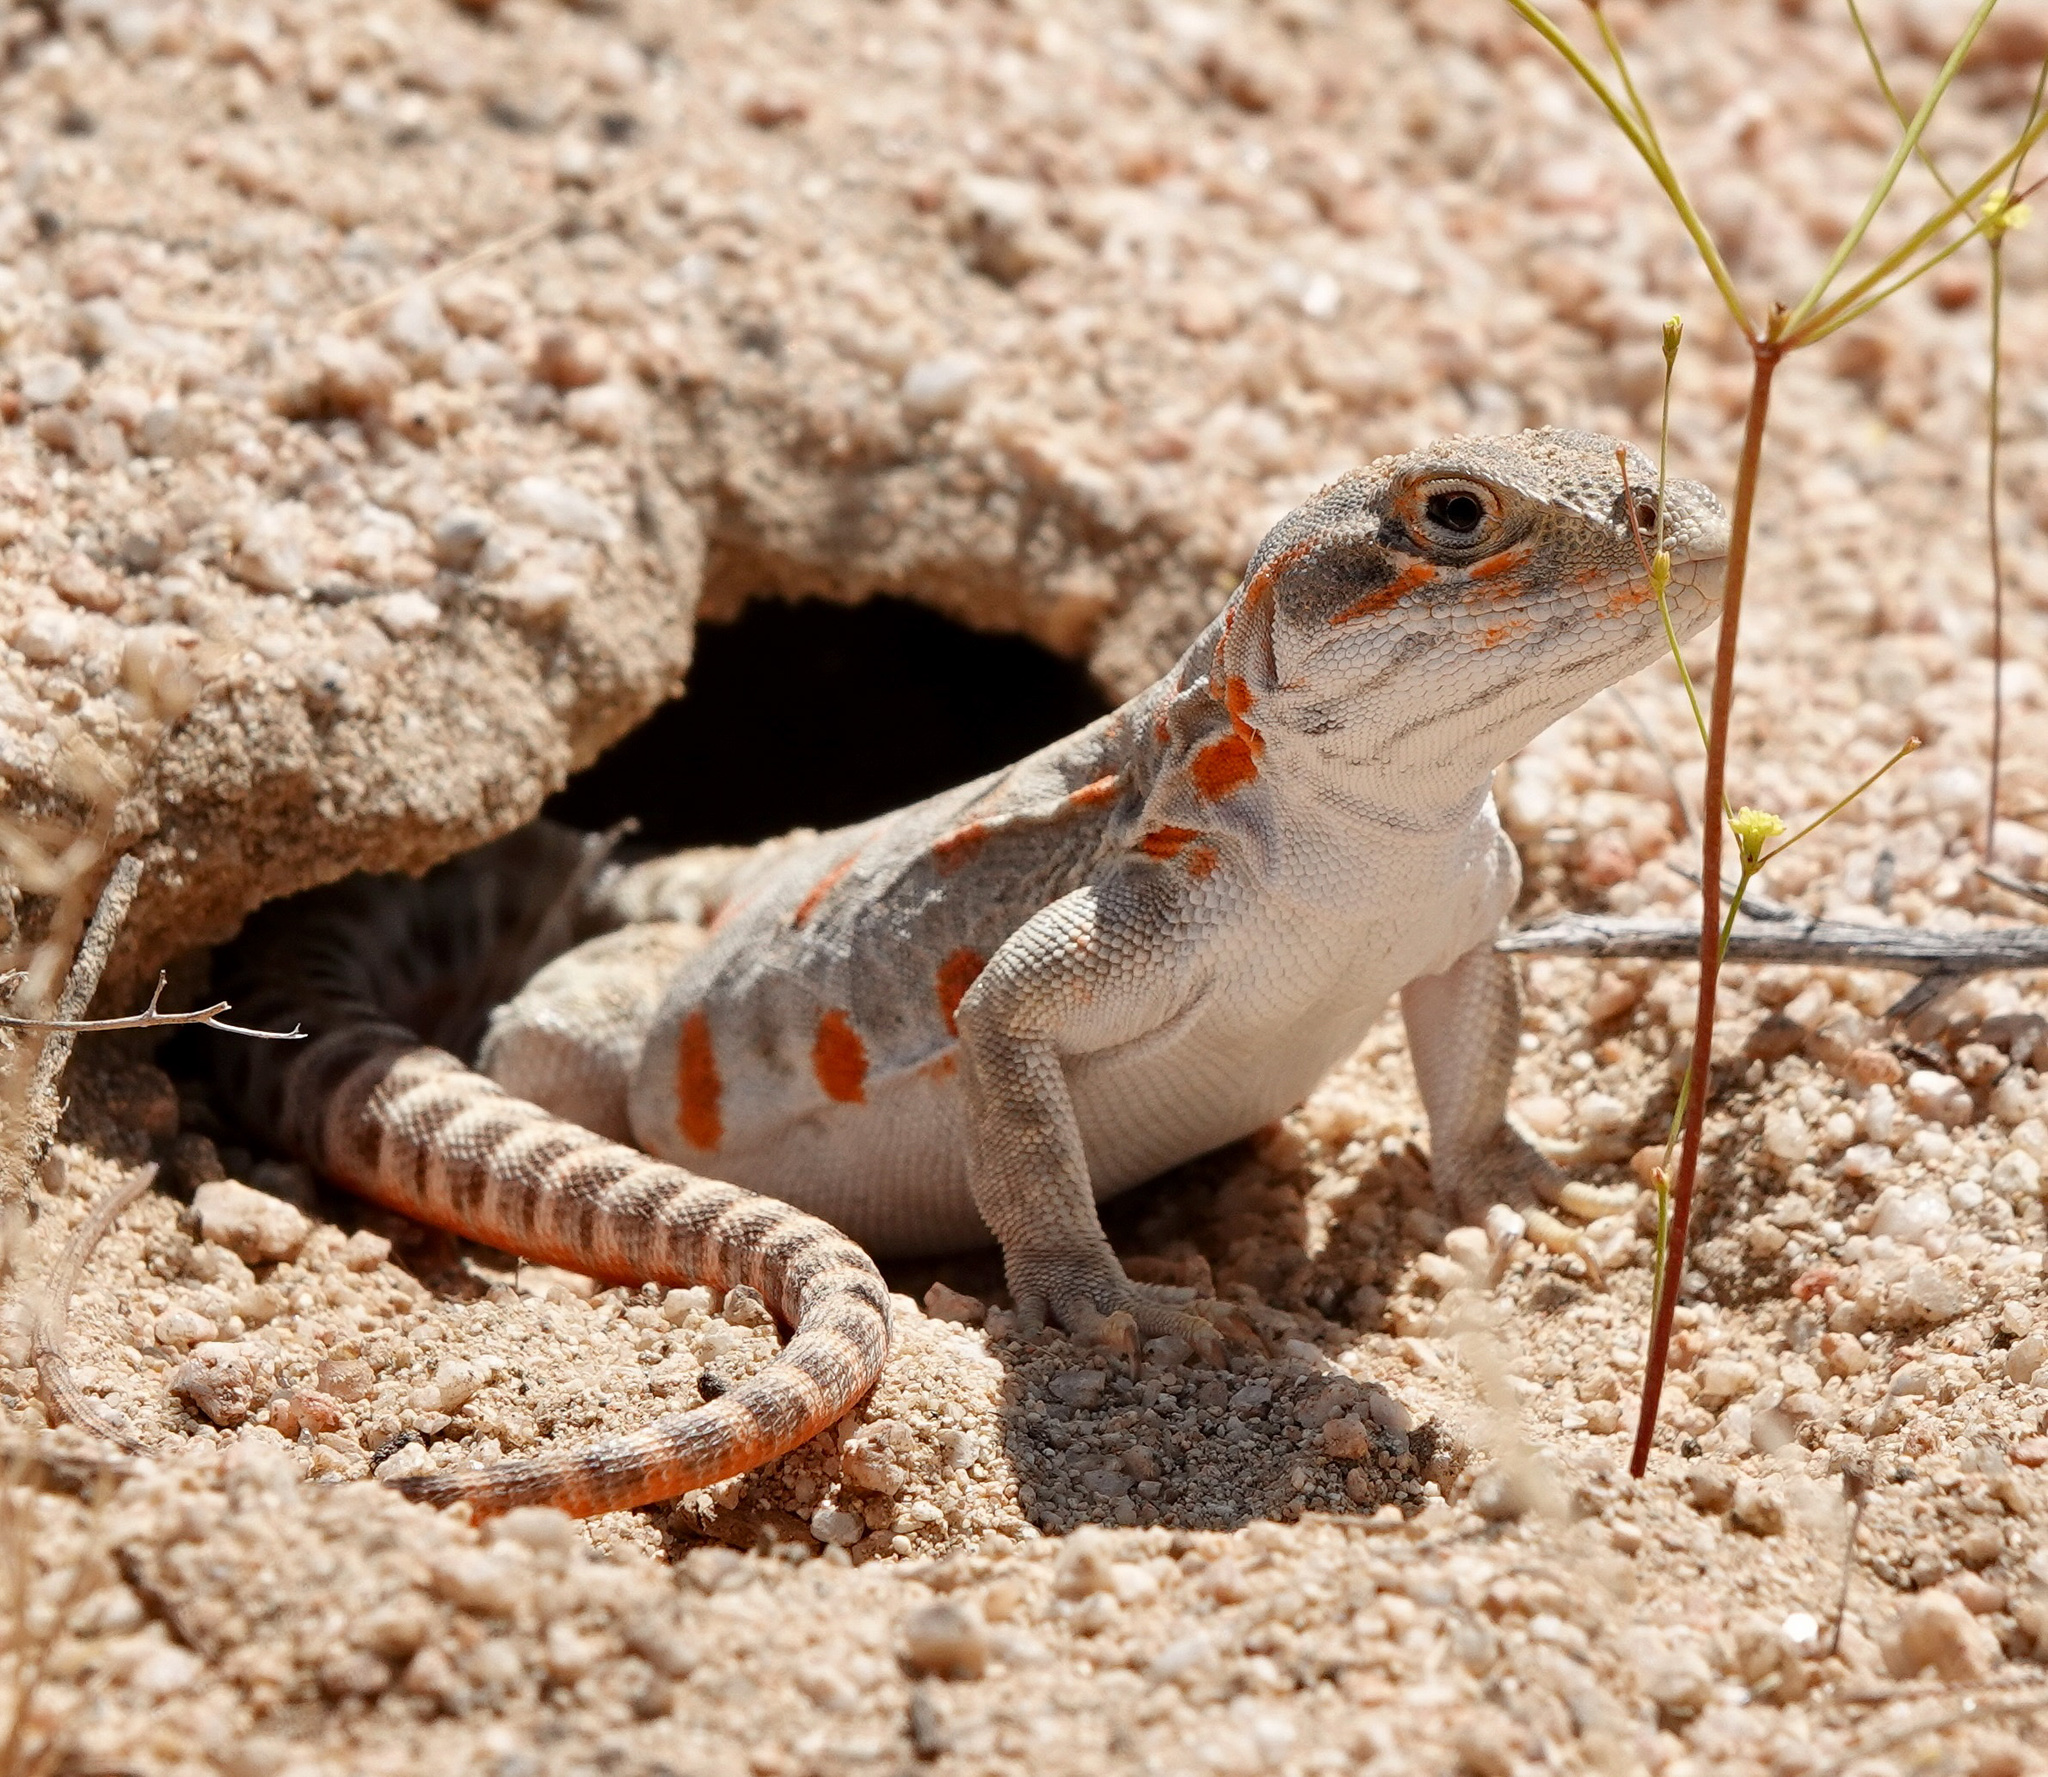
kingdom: Animalia
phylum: Chordata
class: Squamata
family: Crotaphytidae
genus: Gambelia
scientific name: Gambelia wislizenii
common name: Longnose leopard lizard
